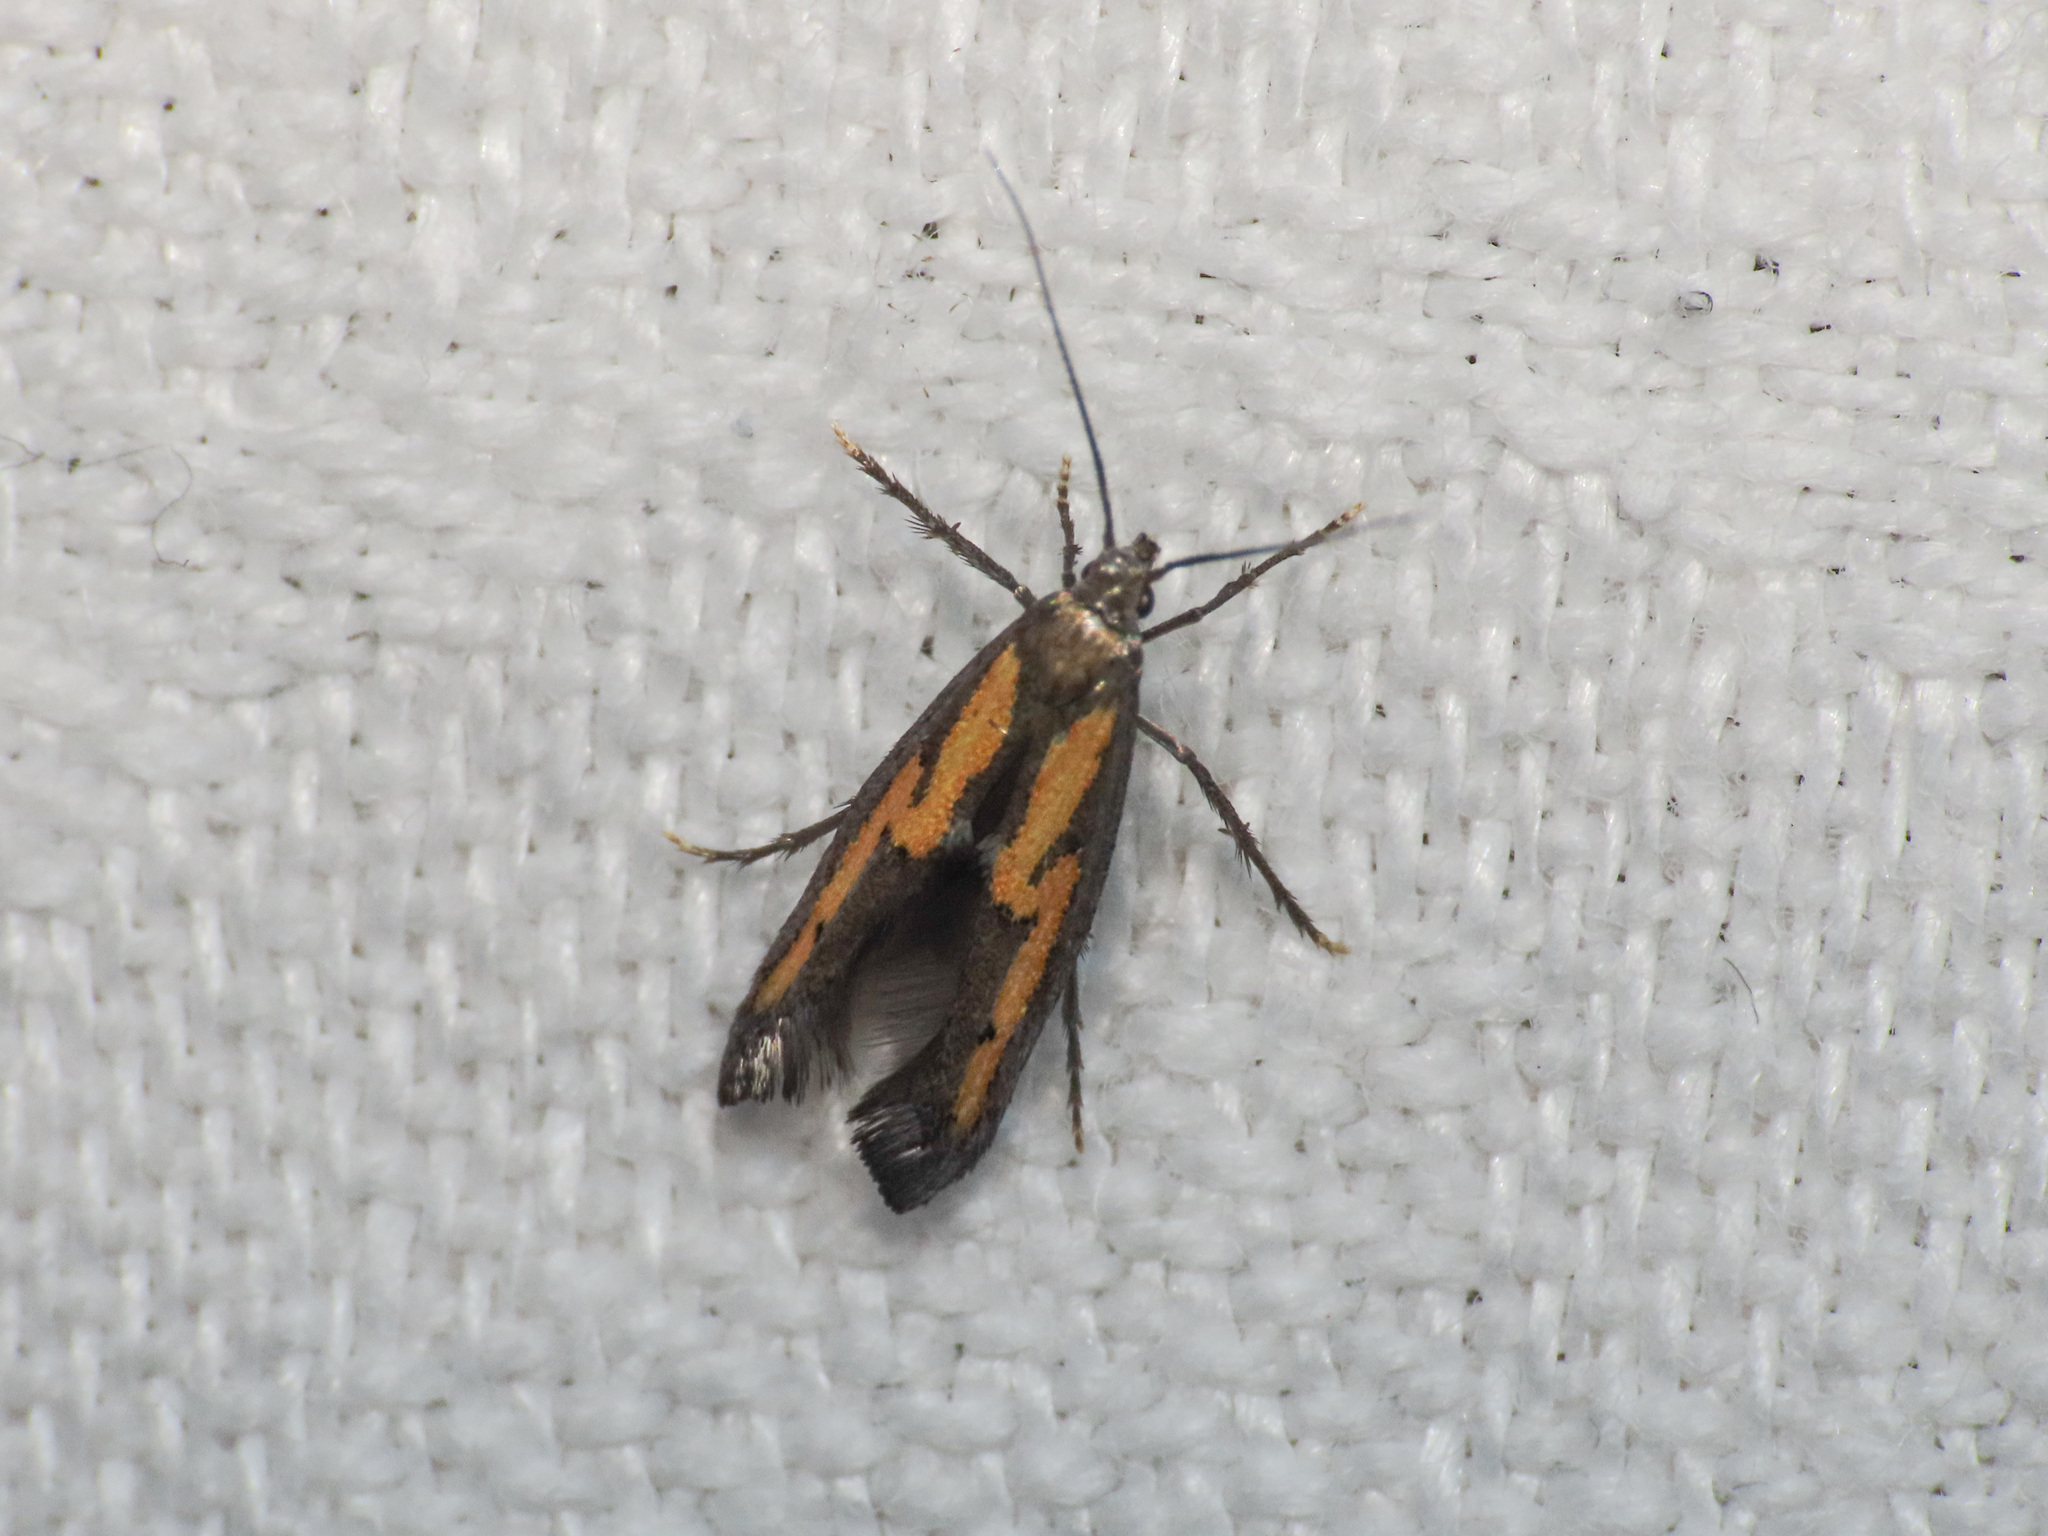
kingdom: Animalia
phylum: Arthropoda
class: Insecta
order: Lepidoptera
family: Epermeniidae
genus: Ochromolopis
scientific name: Ochromolopis ictella
